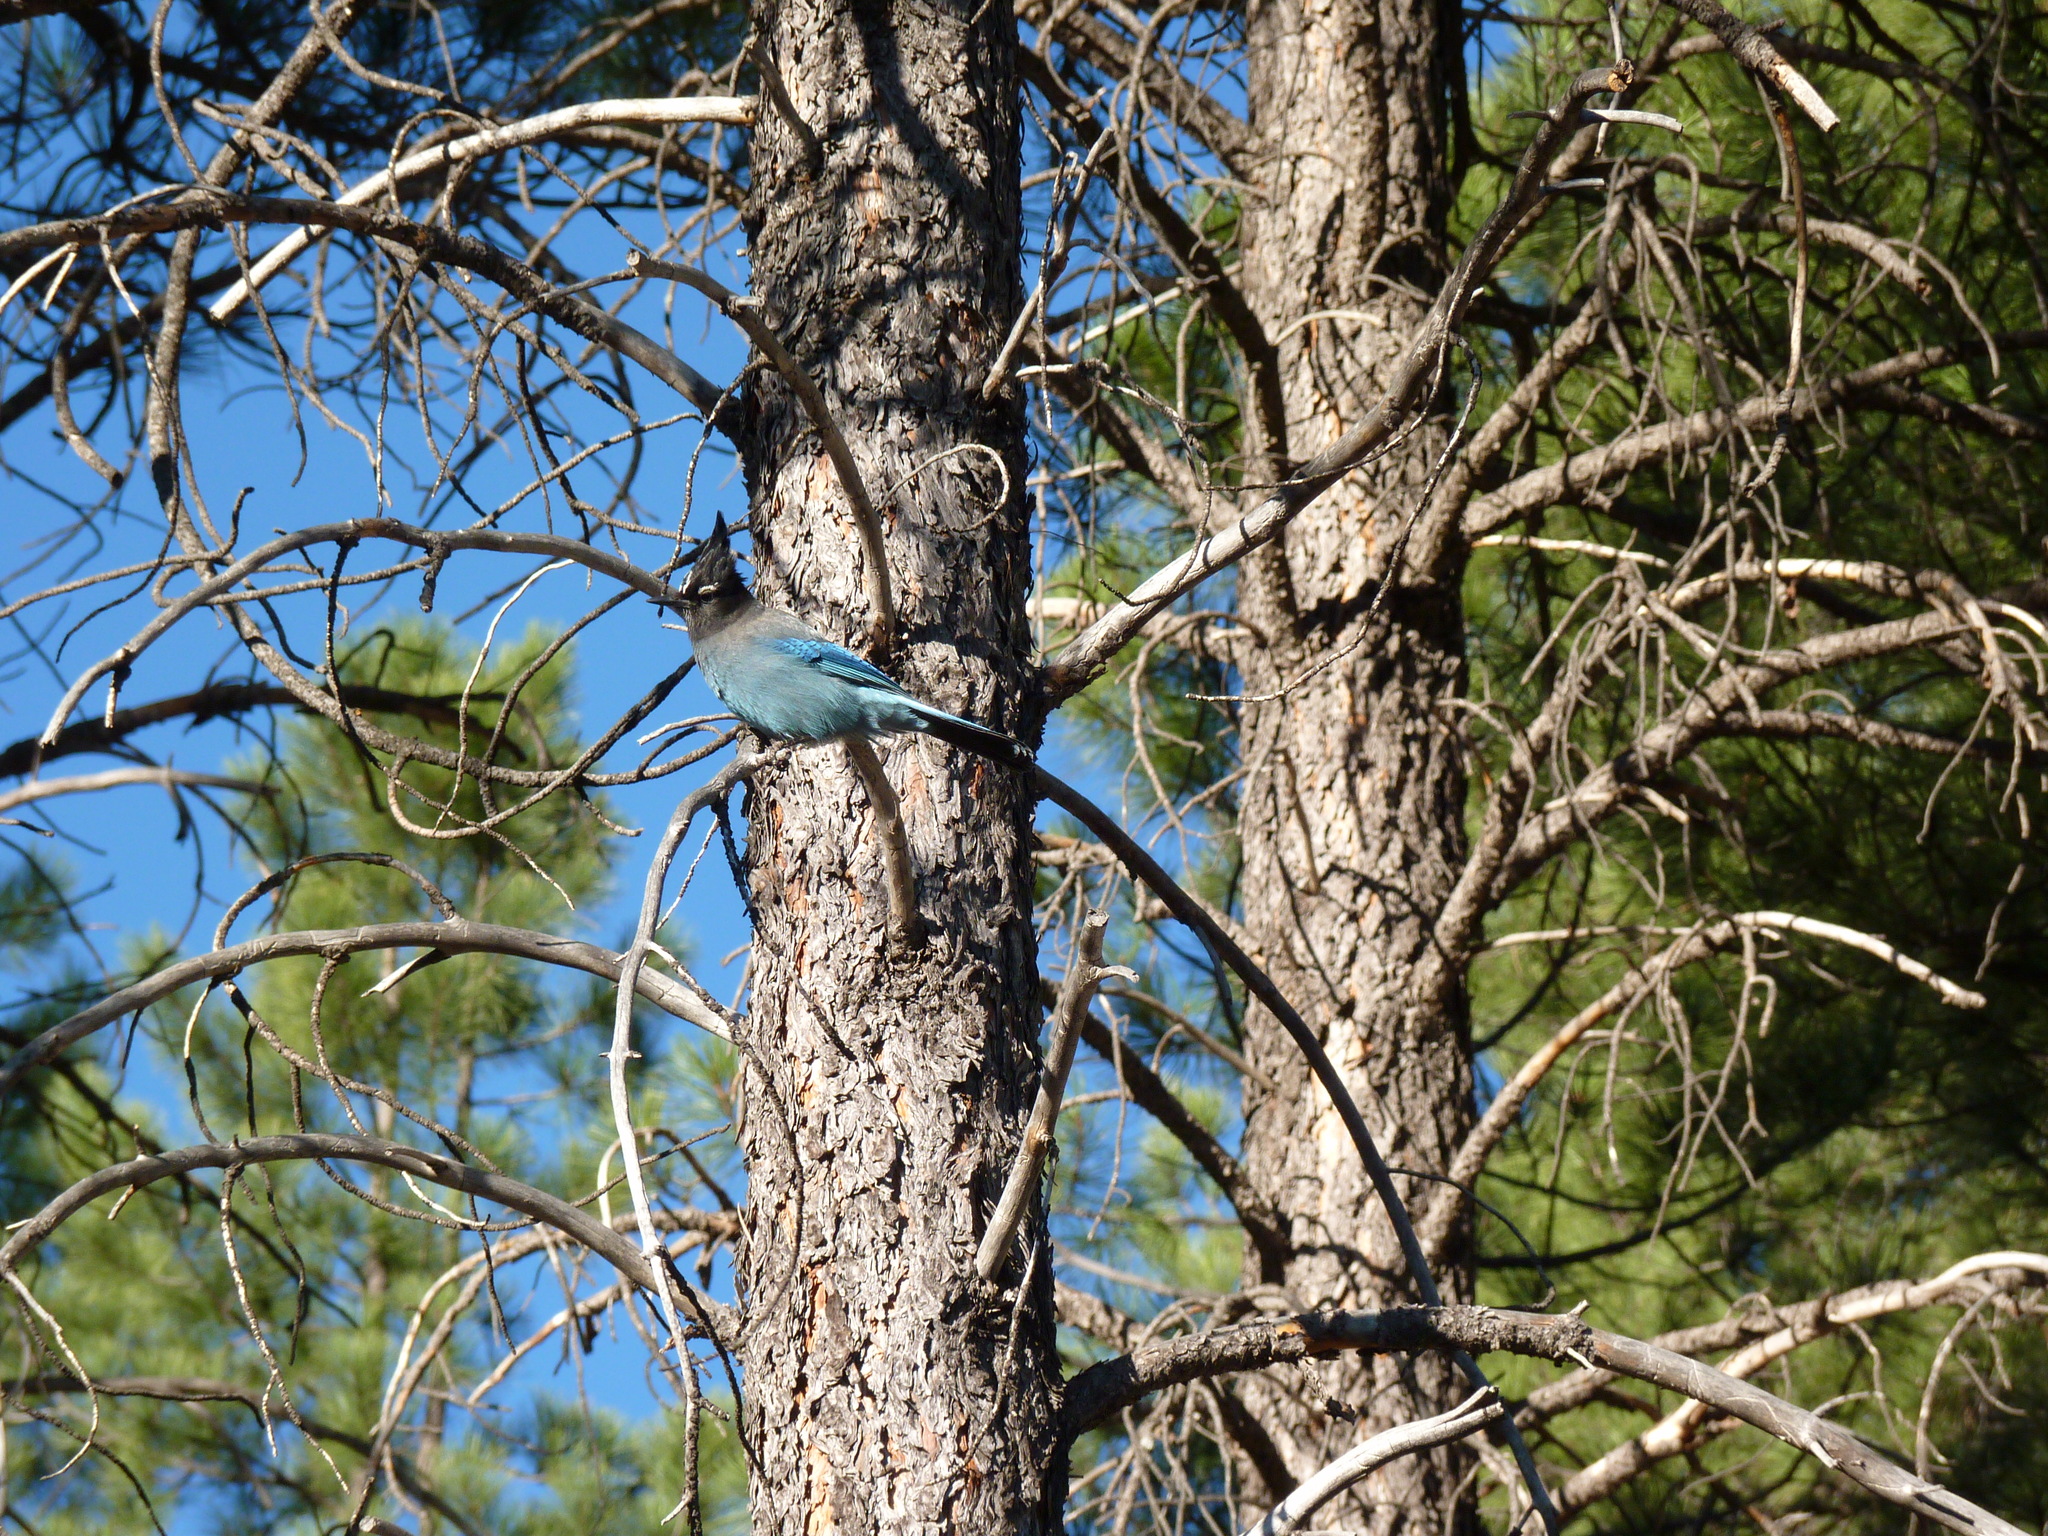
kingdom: Animalia
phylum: Chordata
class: Aves
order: Passeriformes
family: Corvidae
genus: Cyanocitta
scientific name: Cyanocitta stelleri
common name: Steller's jay
